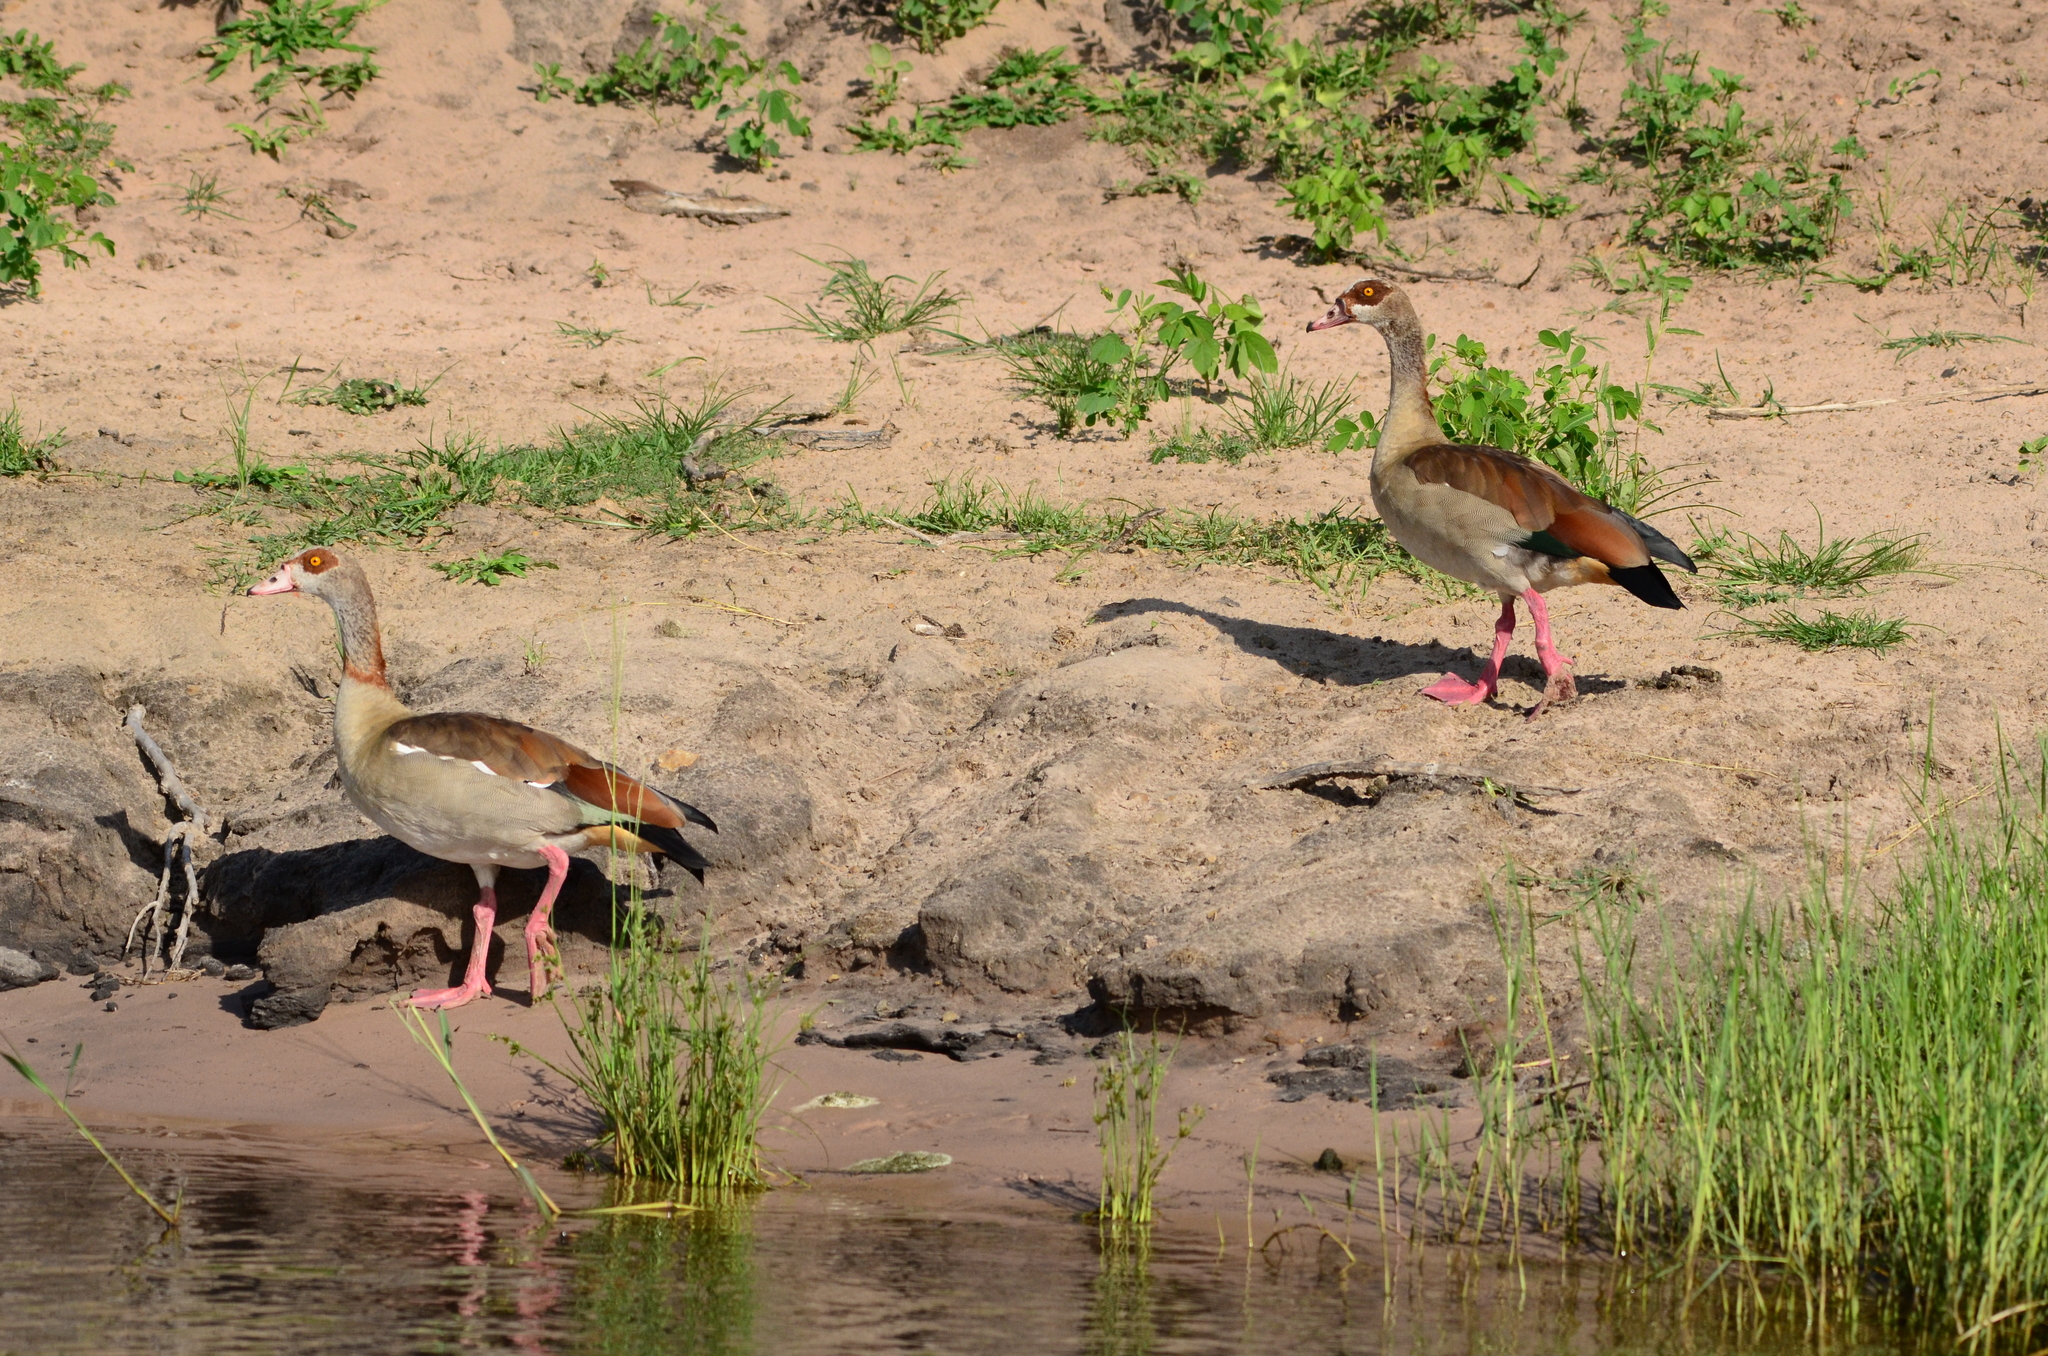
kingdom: Animalia
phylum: Chordata
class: Aves
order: Anseriformes
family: Anatidae
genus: Alopochen
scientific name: Alopochen aegyptiaca
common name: Egyptian goose
